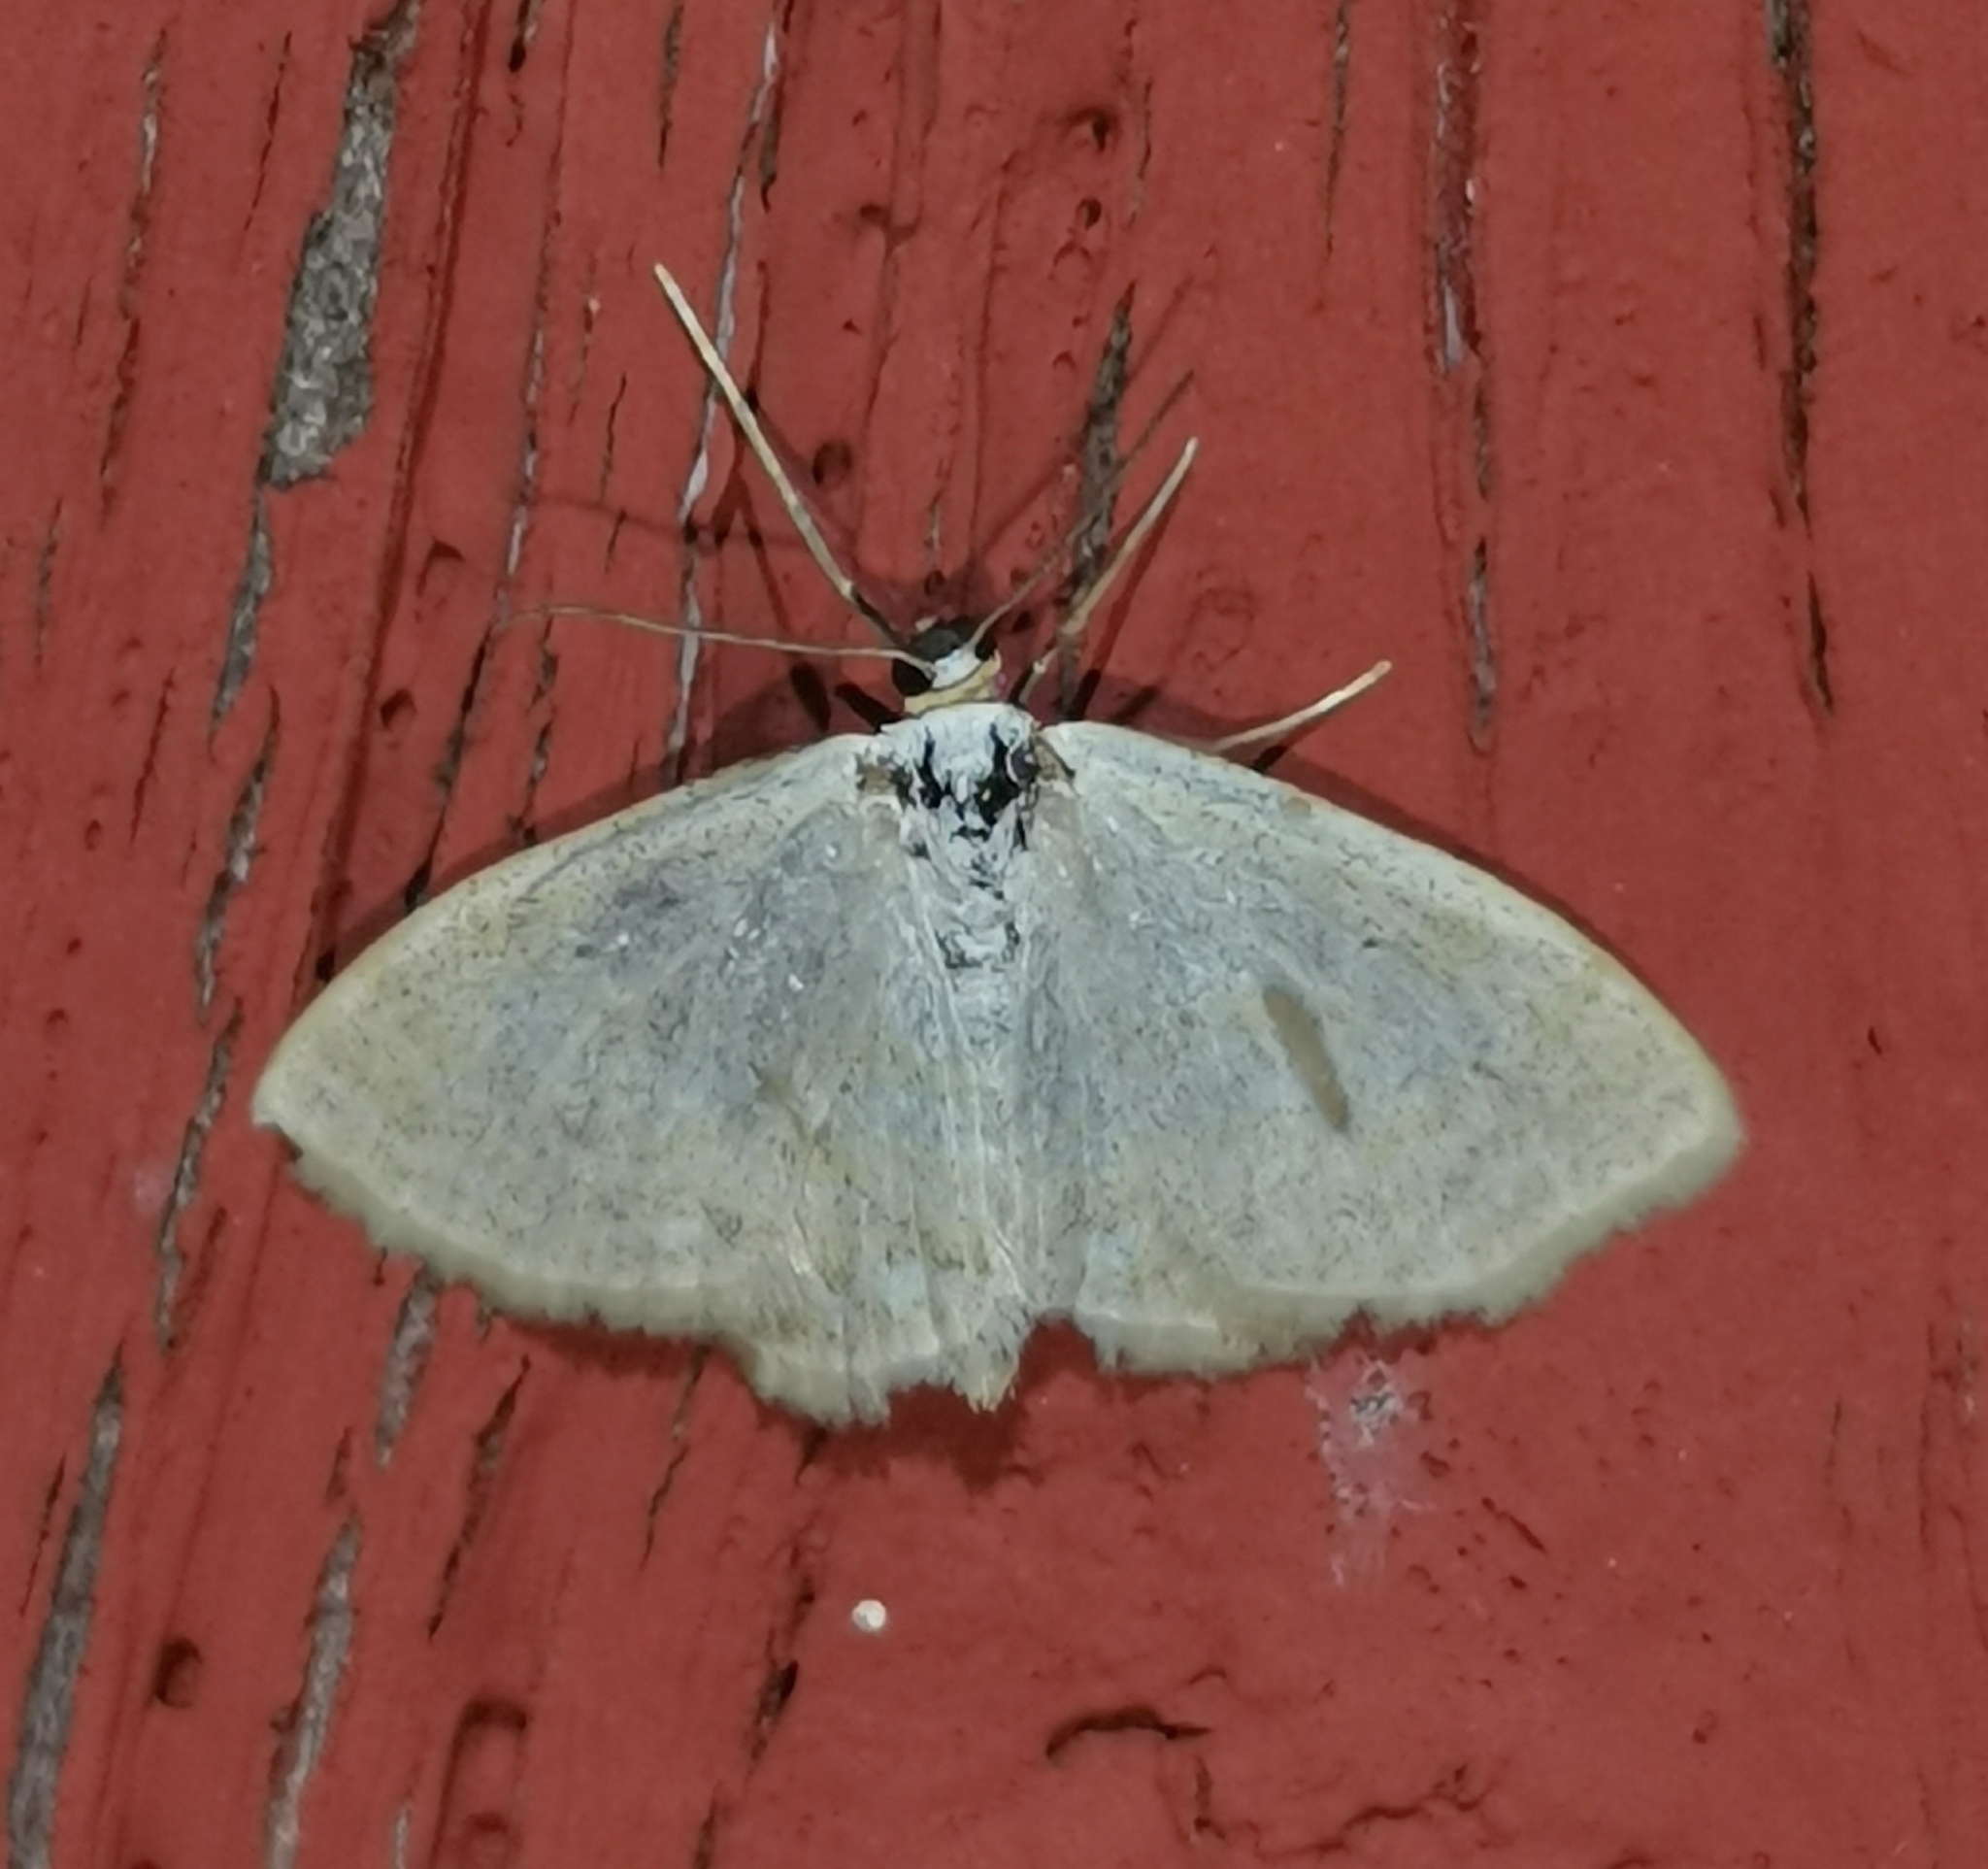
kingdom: Animalia
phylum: Arthropoda
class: Insecta
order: Lepidoptera
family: Geometridae
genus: Scopula
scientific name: Scopula immutata
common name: Lesser cream wave
